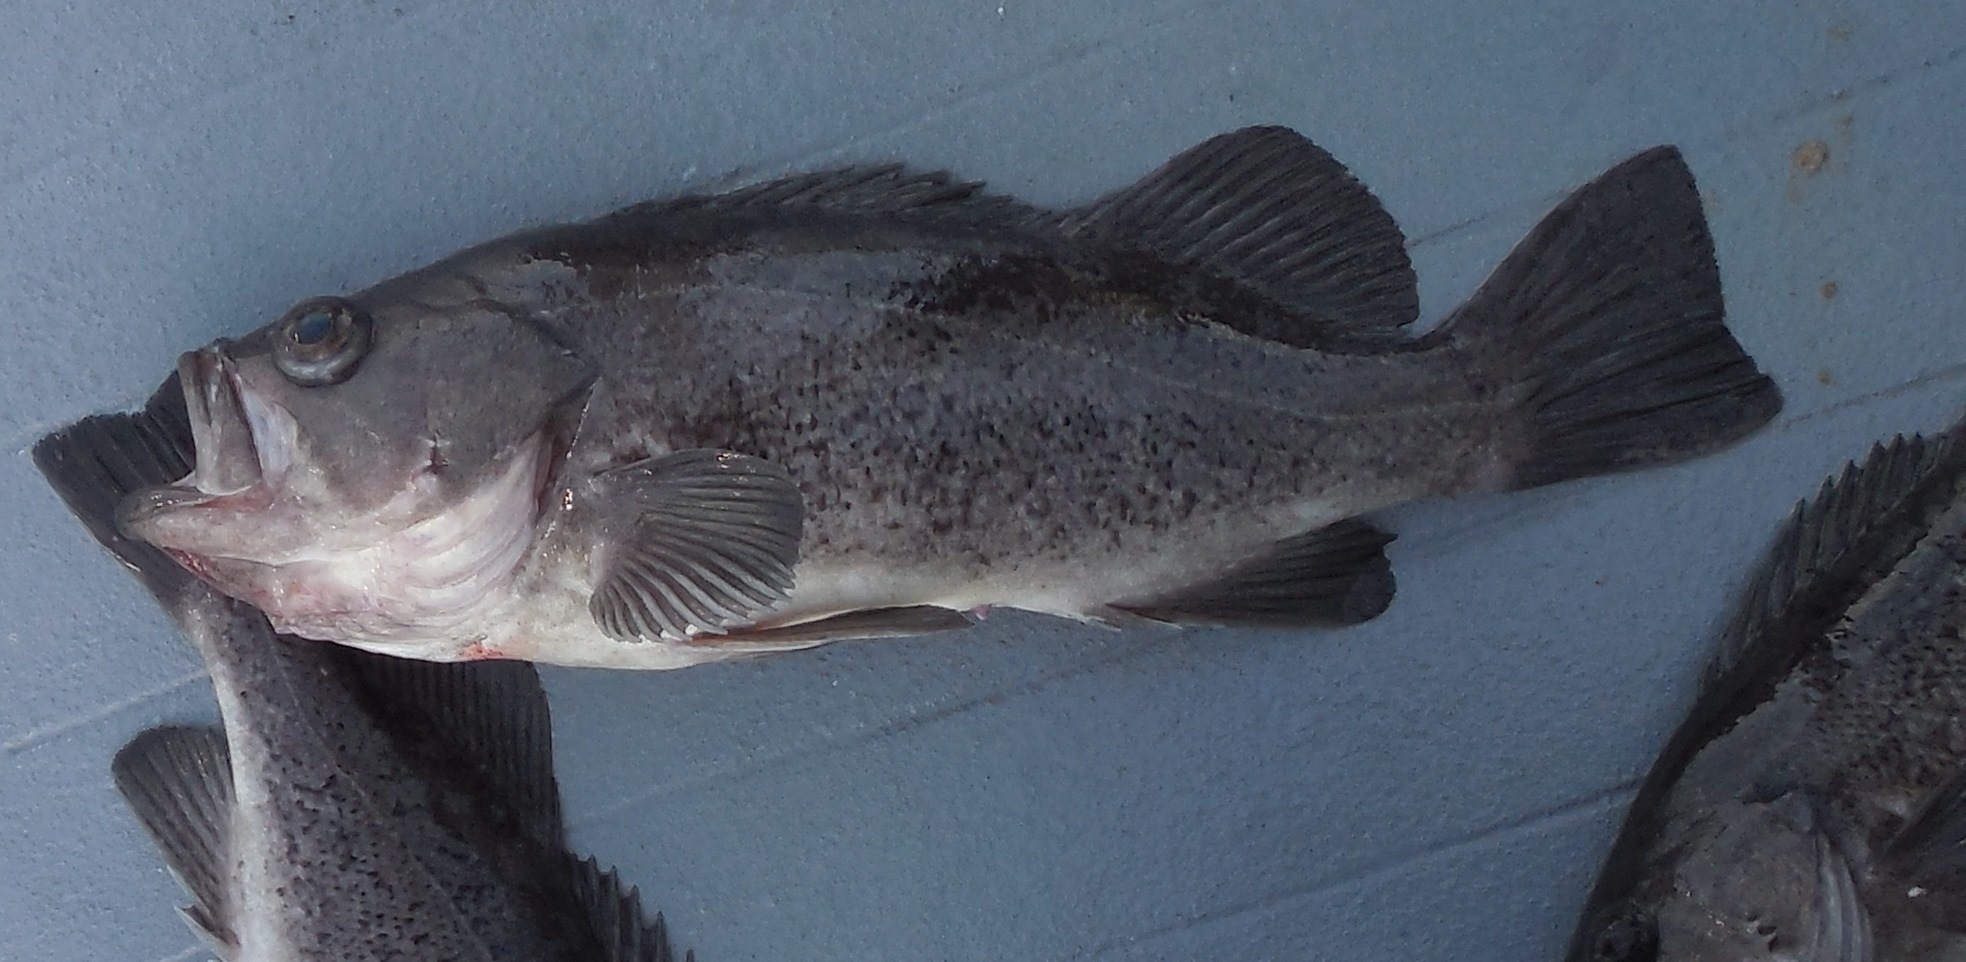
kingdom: Animalia
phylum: Chordata
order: Scorpaeniformes
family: Sebastidae
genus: Sebastes
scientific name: Sebastes melanops
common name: Black rockfish
